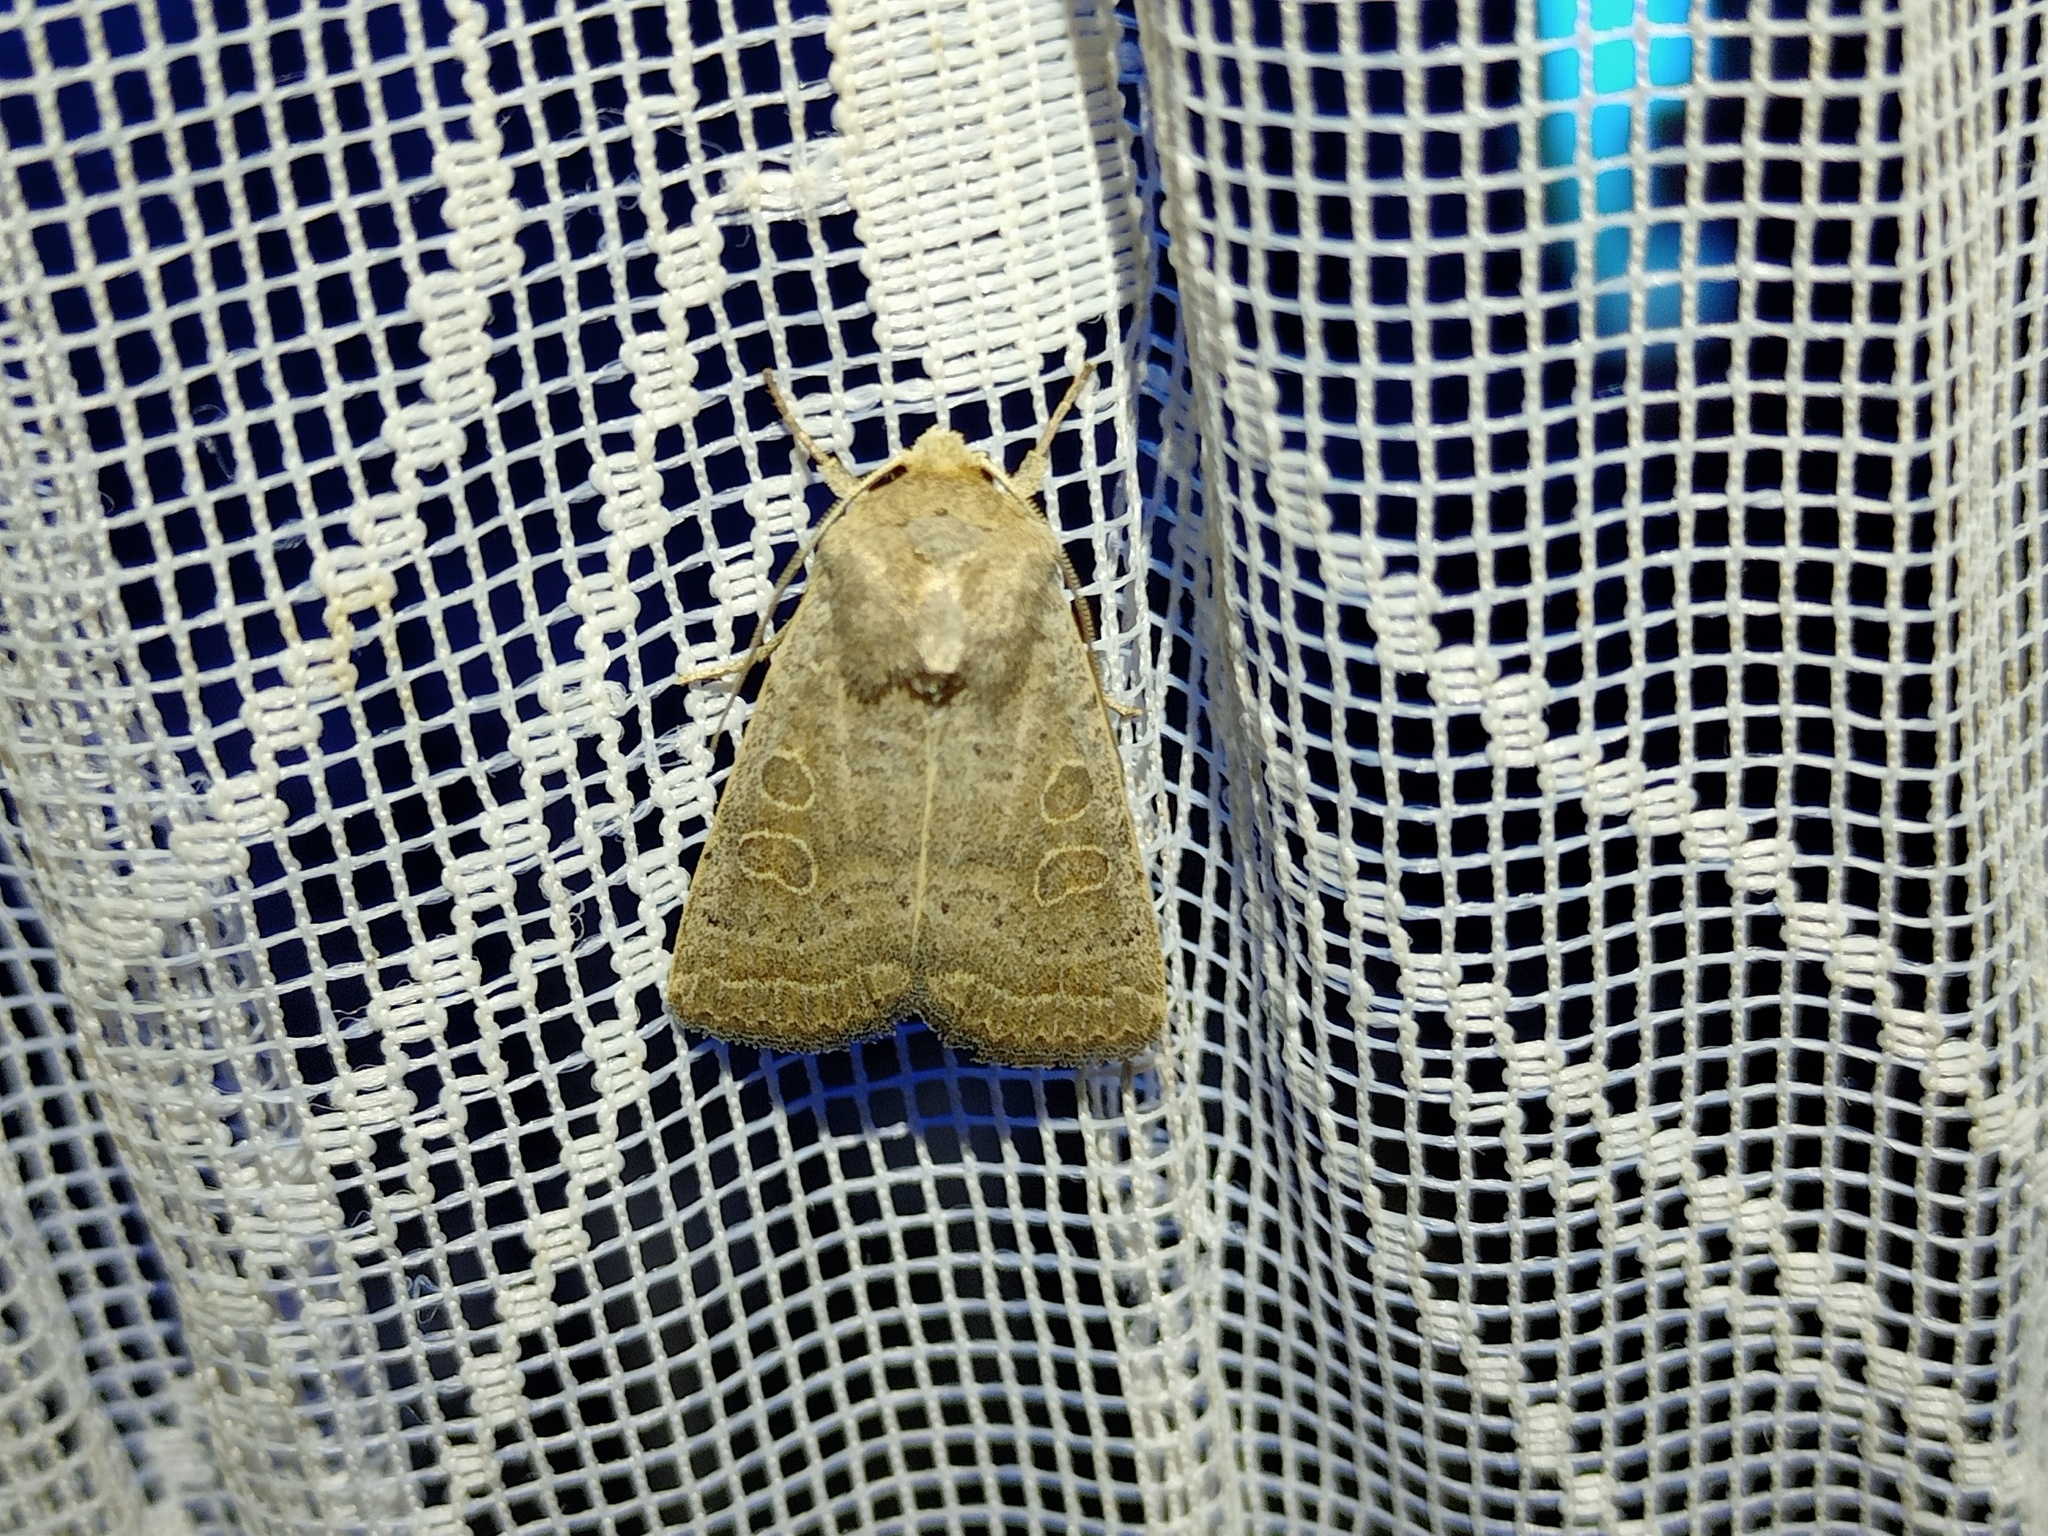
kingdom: Animalia
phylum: Arthropoda
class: Insecta
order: Lepidoptera
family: Noctuidae
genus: Hoplodrina
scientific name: Hoplodrina ambigua
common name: Vine's rustic
